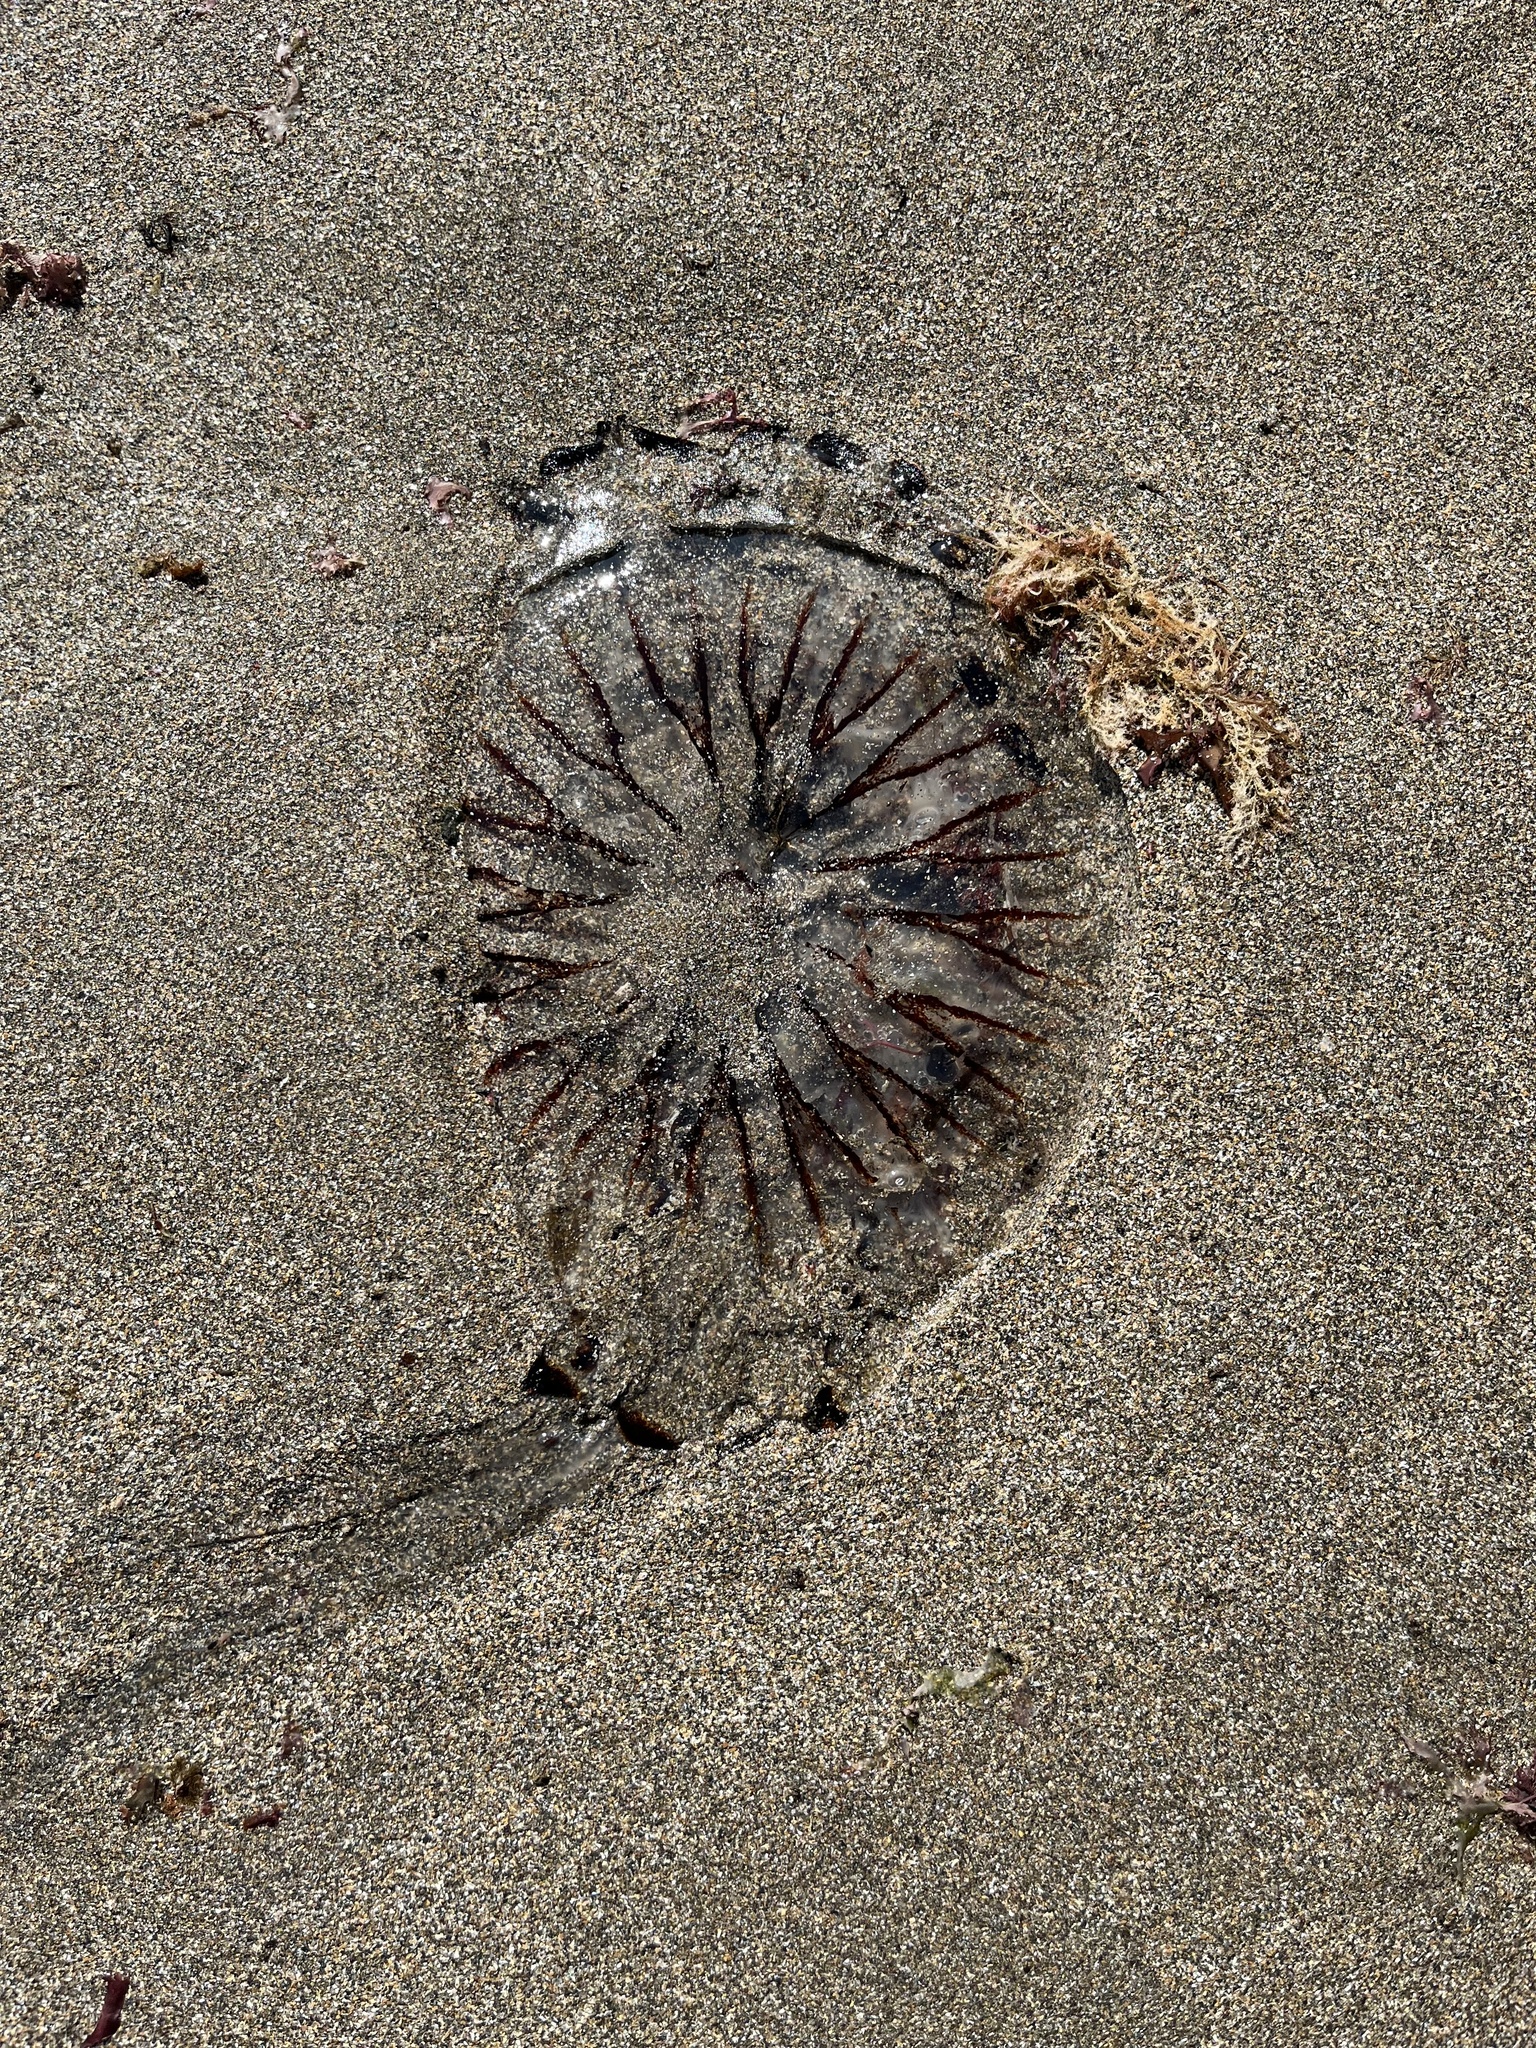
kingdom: Animalia
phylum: Cnidaria
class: Scyphozoa
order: Semaeostomeae
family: Pelagiidae
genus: Chrysaora
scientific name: Chrysaora hysoscella
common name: Compass jellyfish
